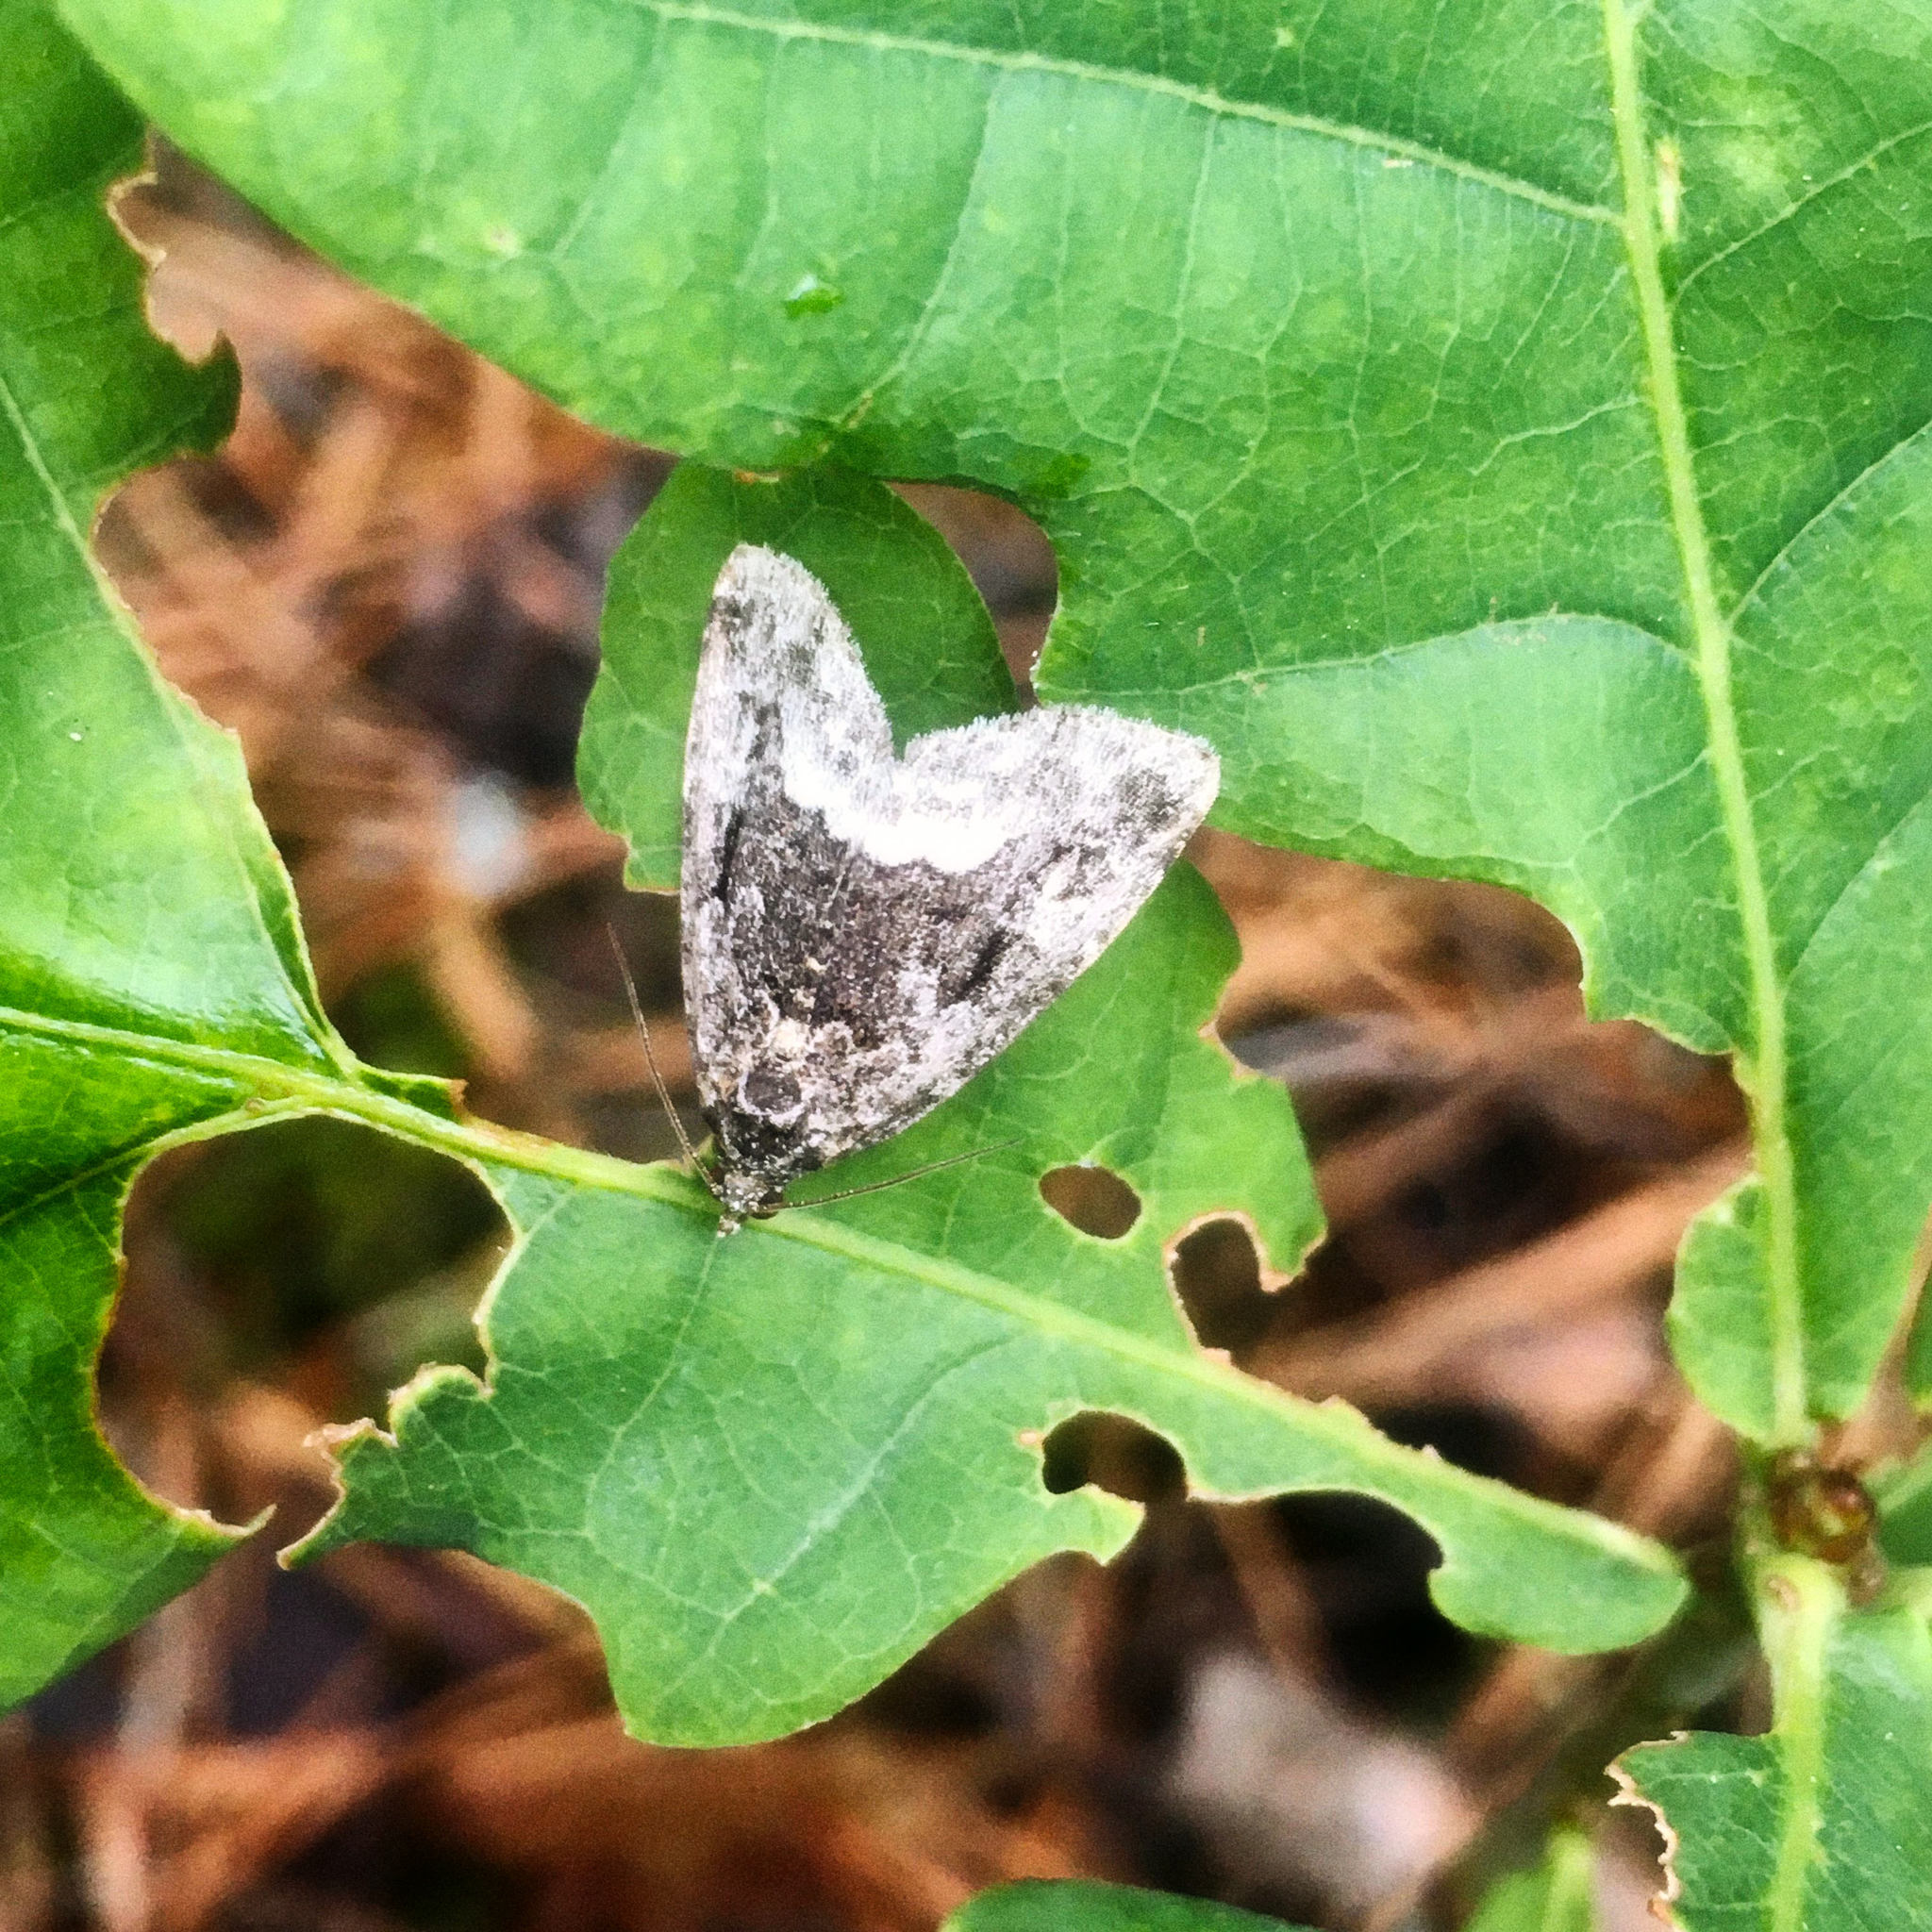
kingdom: Animalia
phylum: Arthropoda
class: Insecta
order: Lepidoptera
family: Noctuidae
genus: Deltote
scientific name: Deltote pygarga
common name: Marbled white spot
